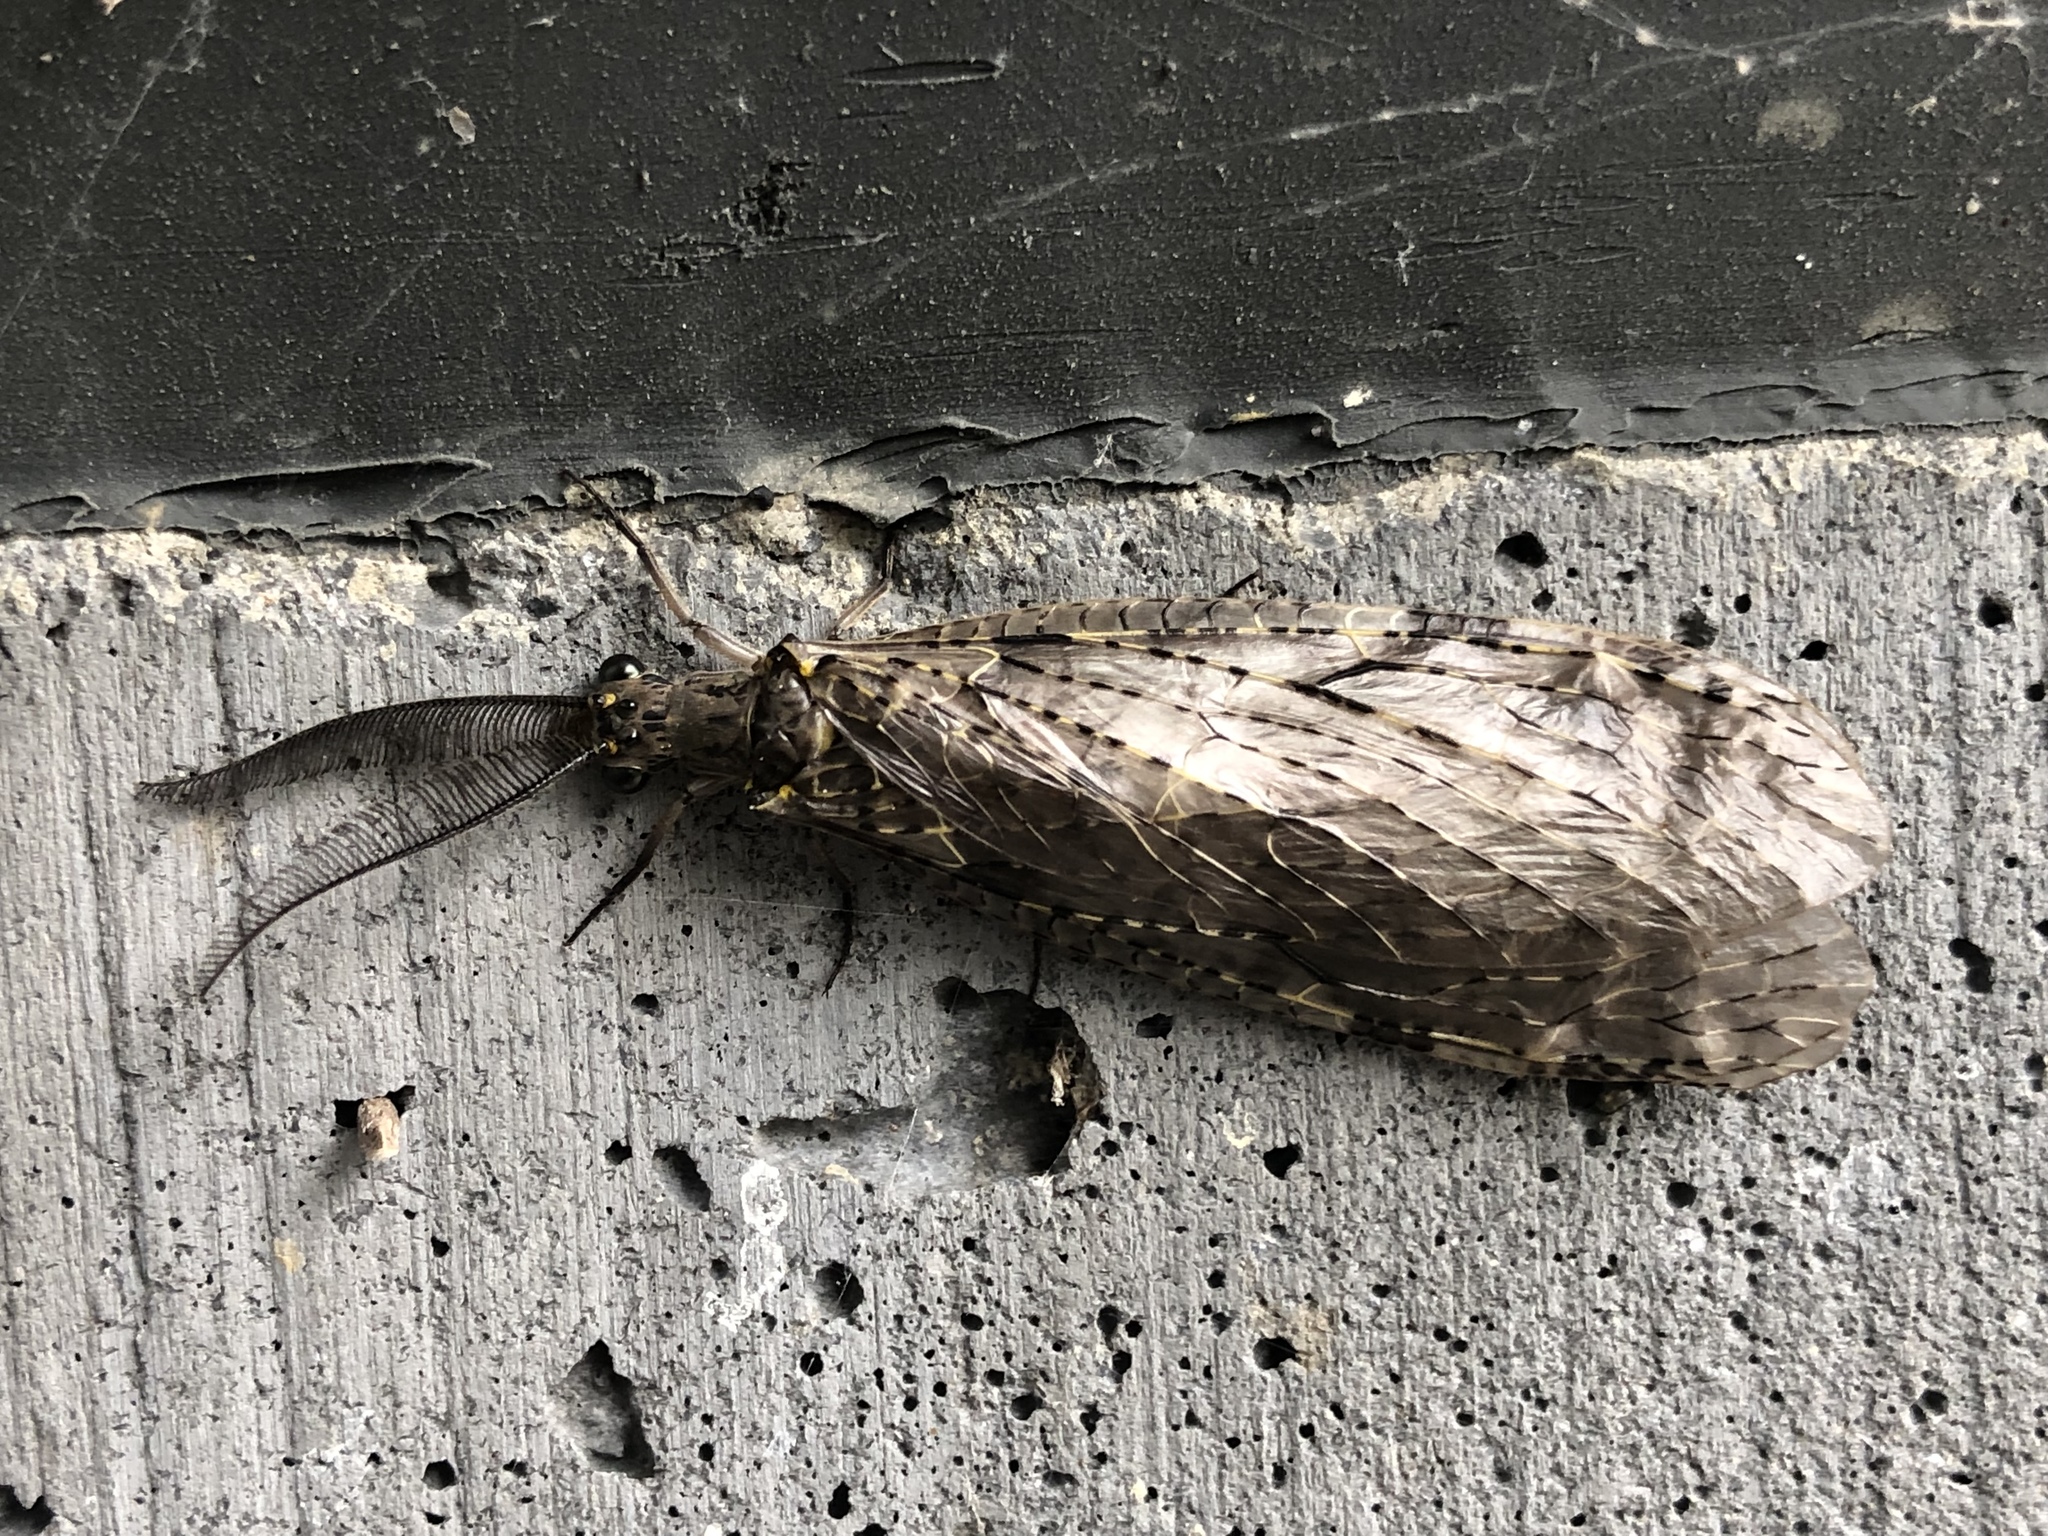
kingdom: Animalia
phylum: Arthropoda
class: Insecta
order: Megaloptera
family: Corydalidae
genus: Chauliodes
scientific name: Chauliodes rastricornis
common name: Spring fishfly
